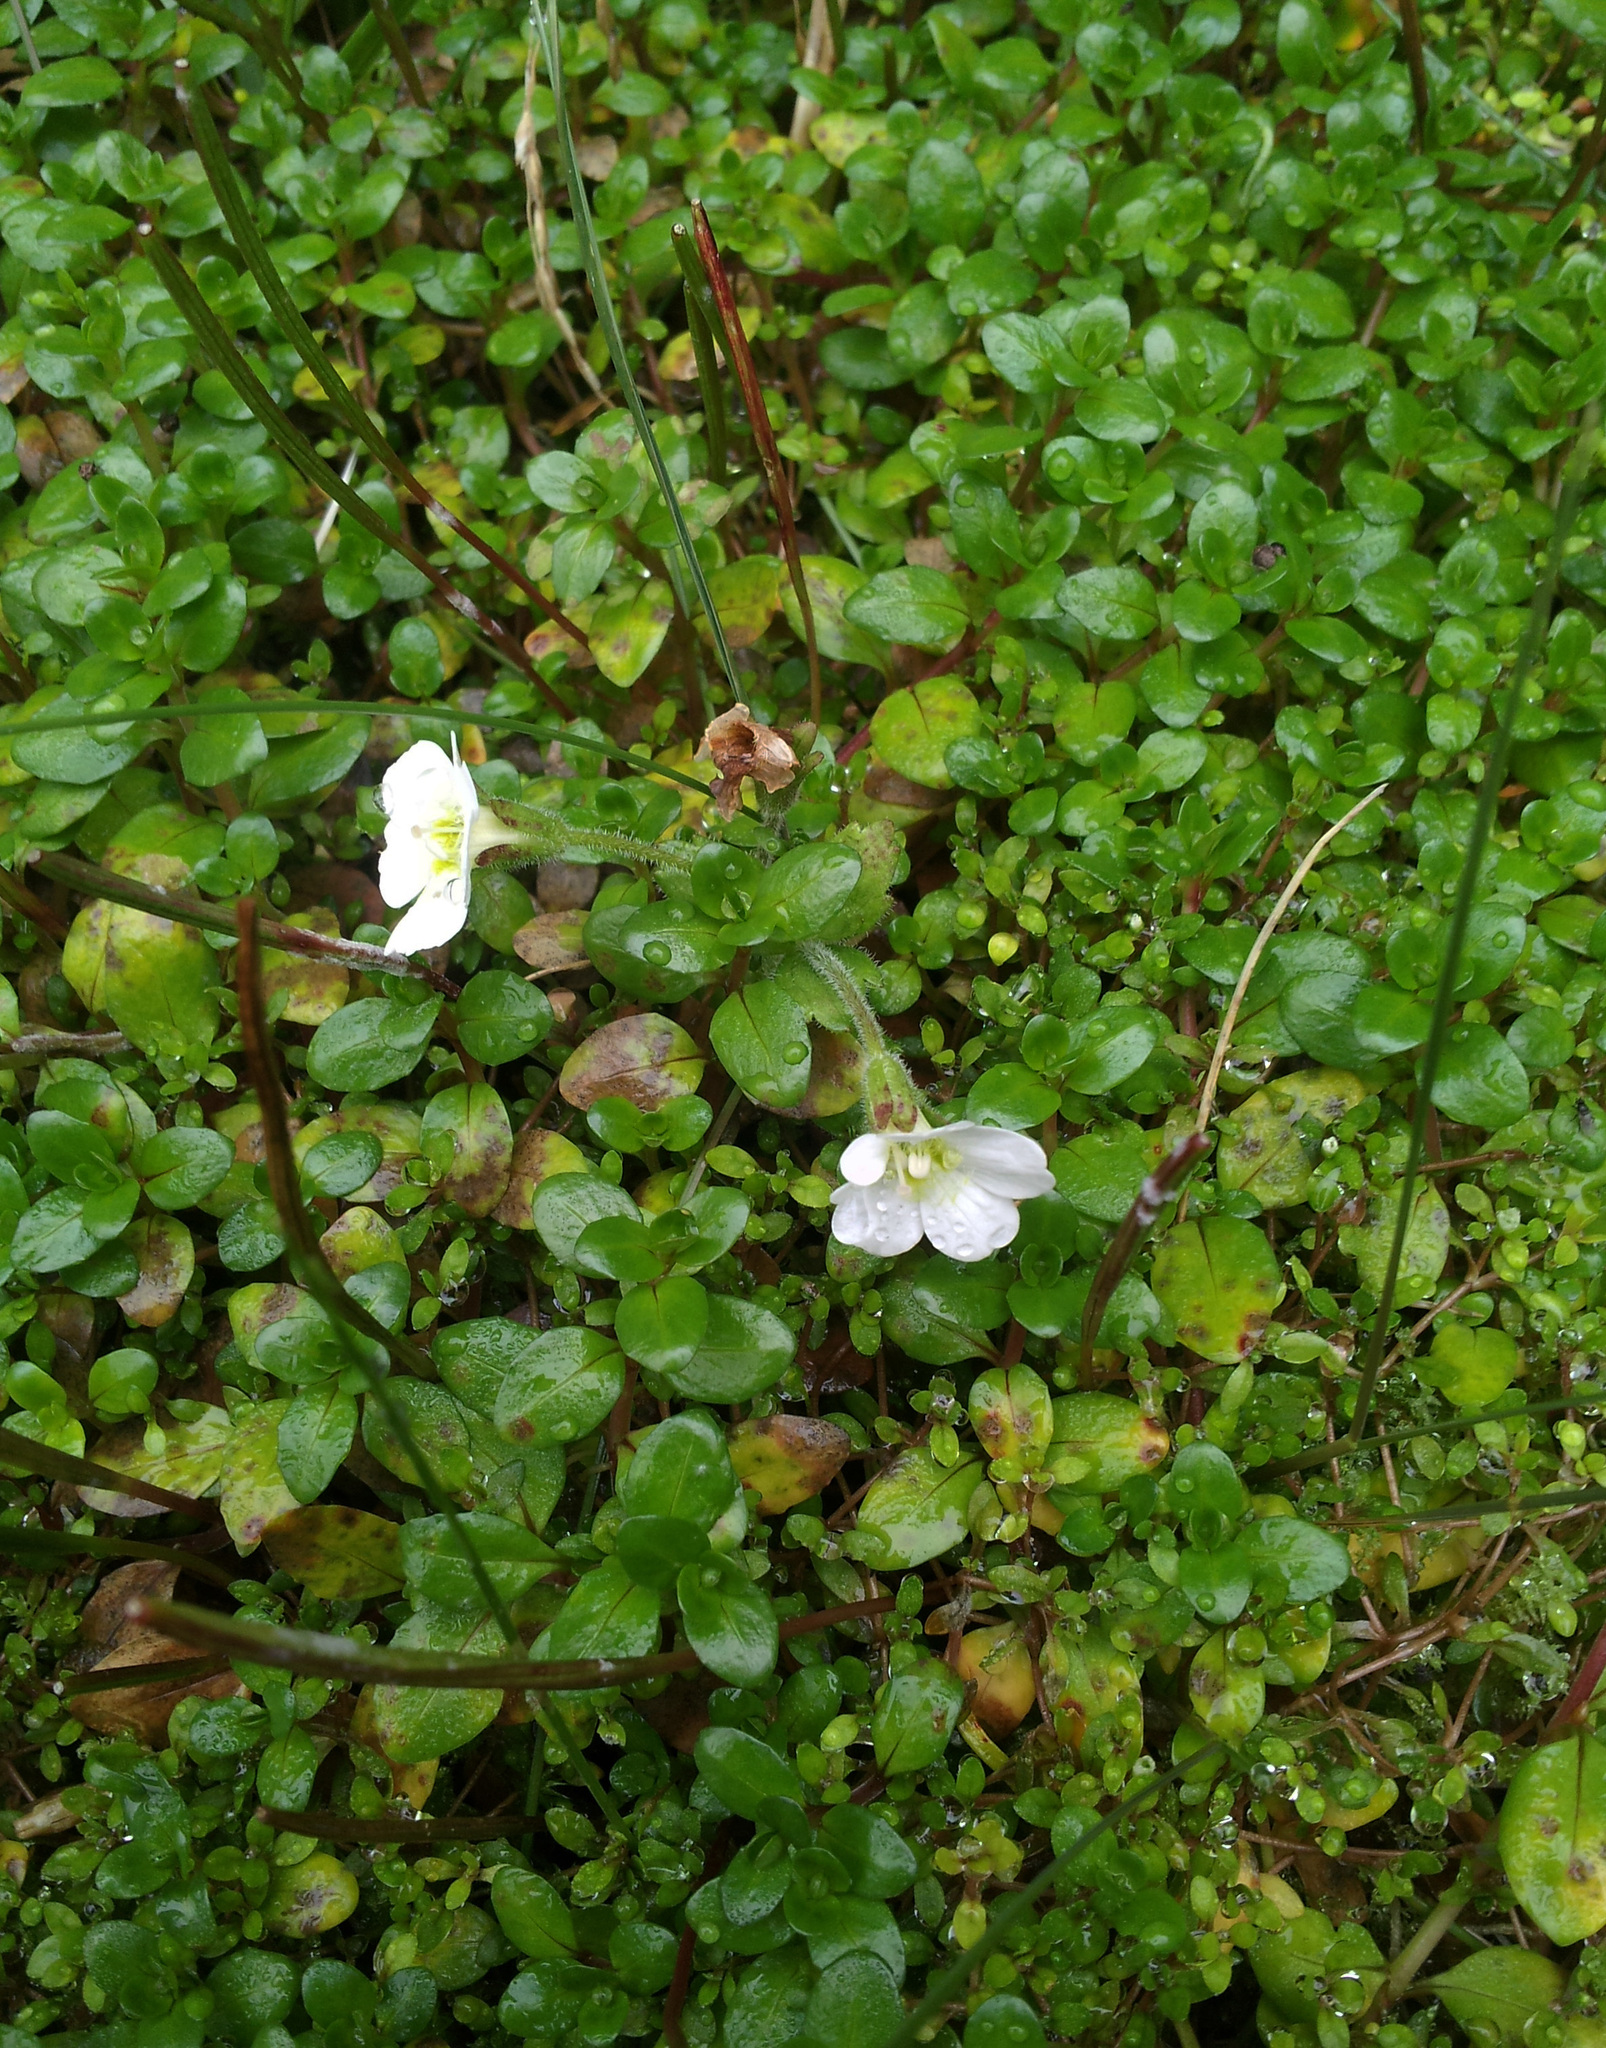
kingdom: Plantae
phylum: Tracheophyta
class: Magnoliopsida
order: Myrtales
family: Onagraceae
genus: Epilobium
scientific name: Epilobium macropus
